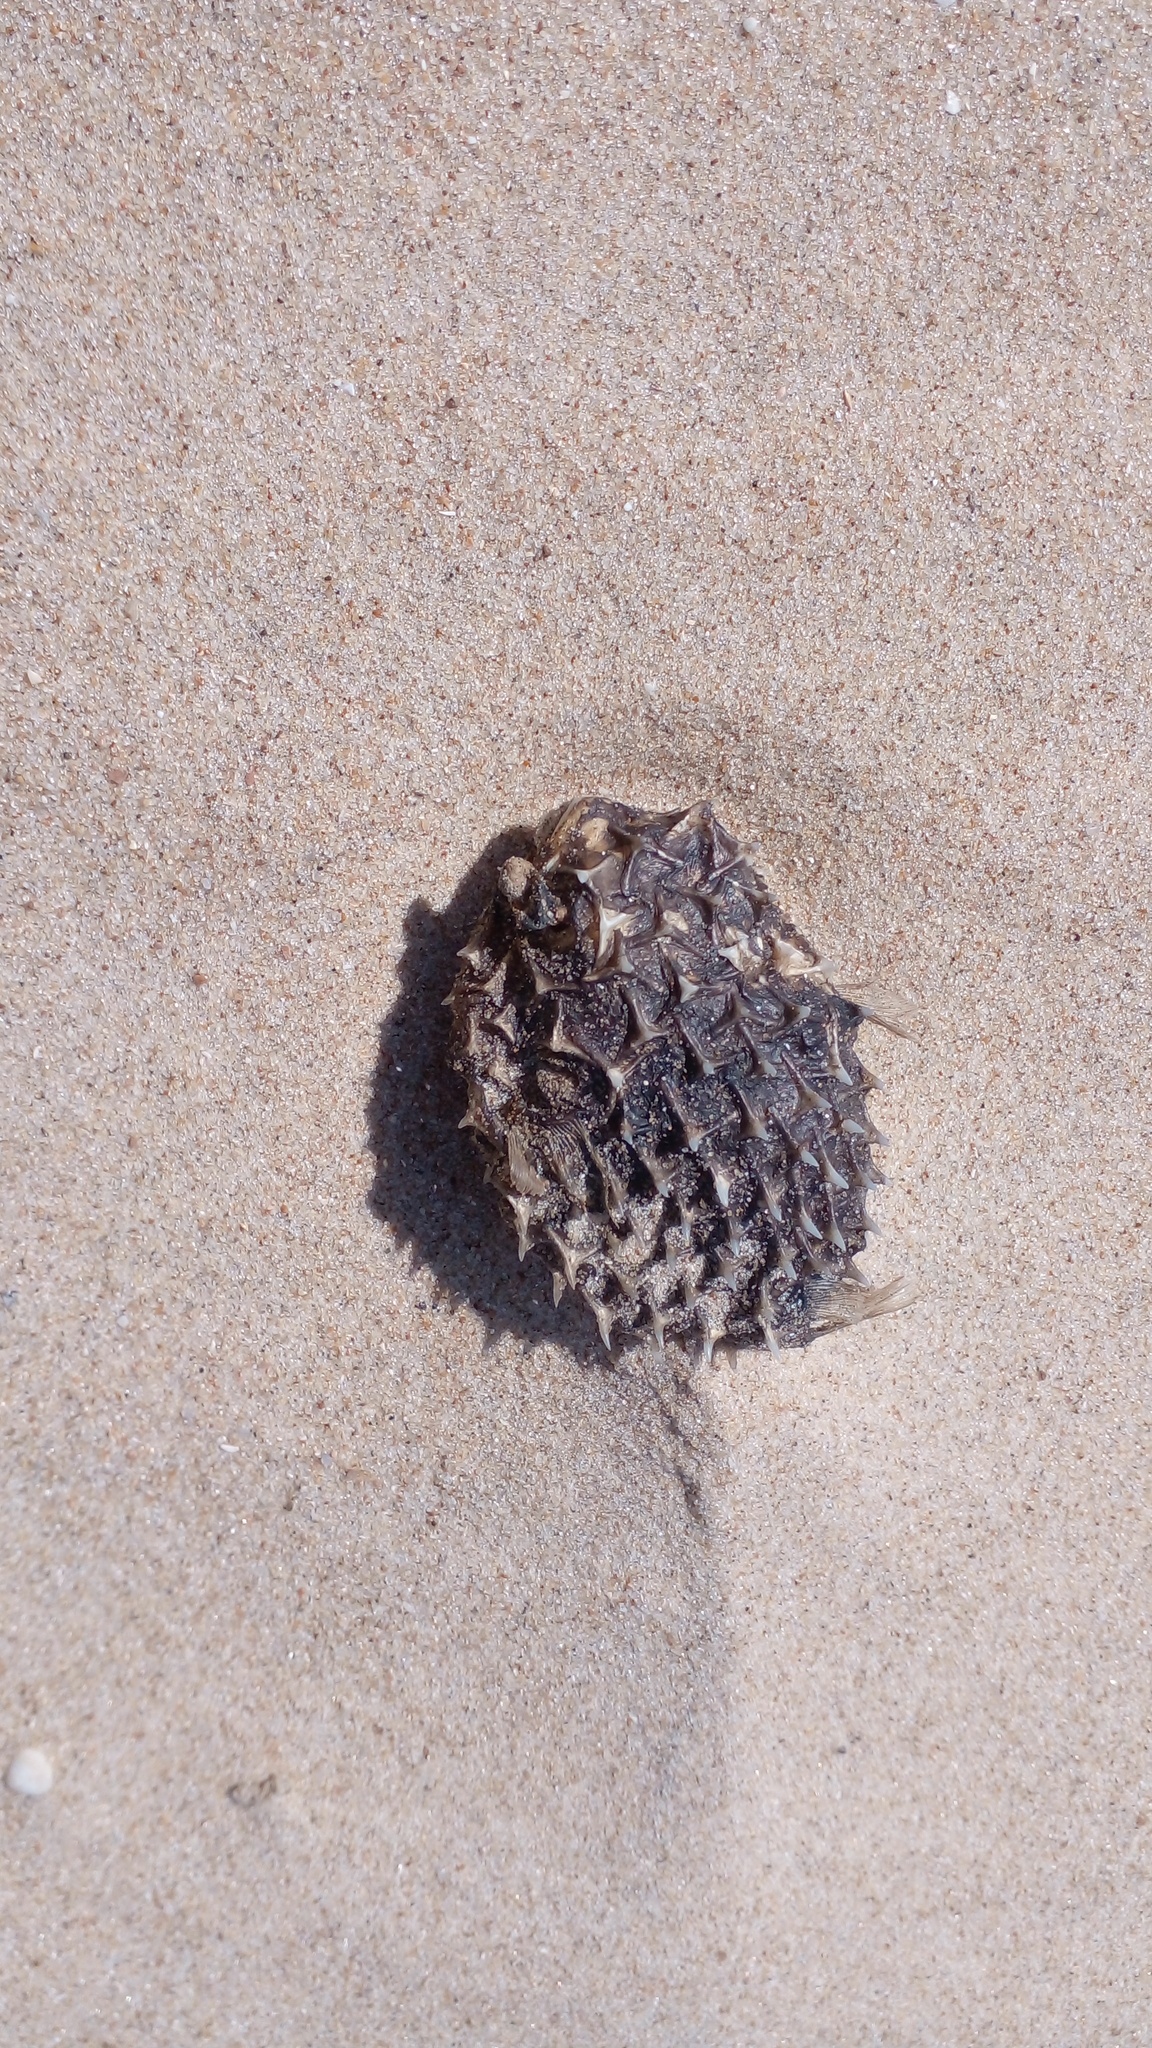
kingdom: Animalia
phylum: Chordata
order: Tetraodontiformes
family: Diodontidae
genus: Chilomycterus
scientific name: Chilomycterus spinosus
